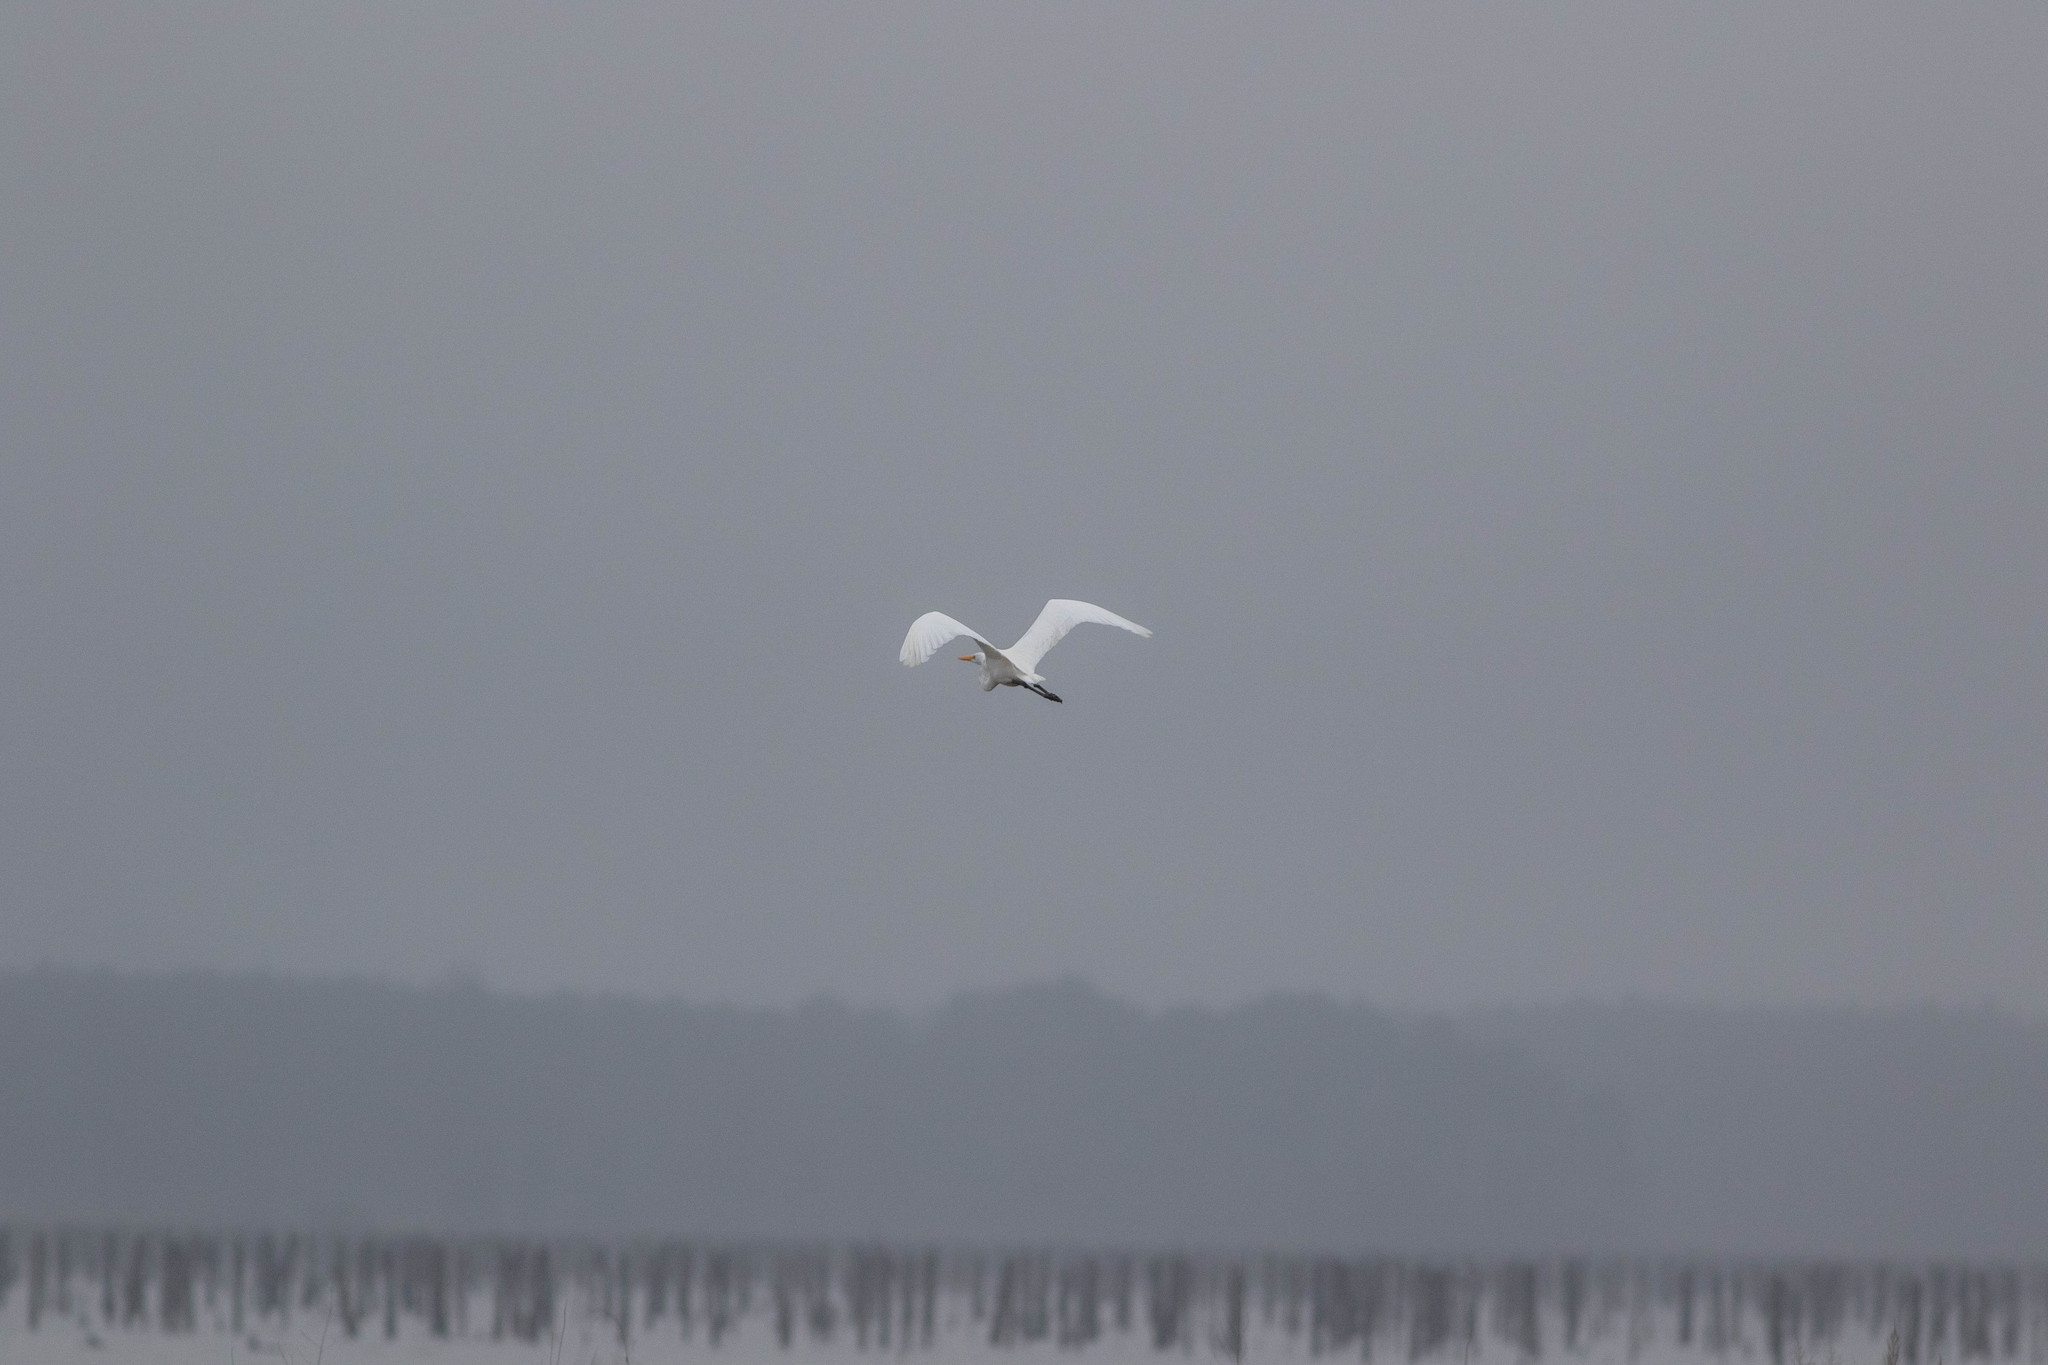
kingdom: Animalia
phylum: Chordata
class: Aves
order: Pelecaniformes
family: Ardeidae
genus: Ardea
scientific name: Ardea alba
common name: Great egret
